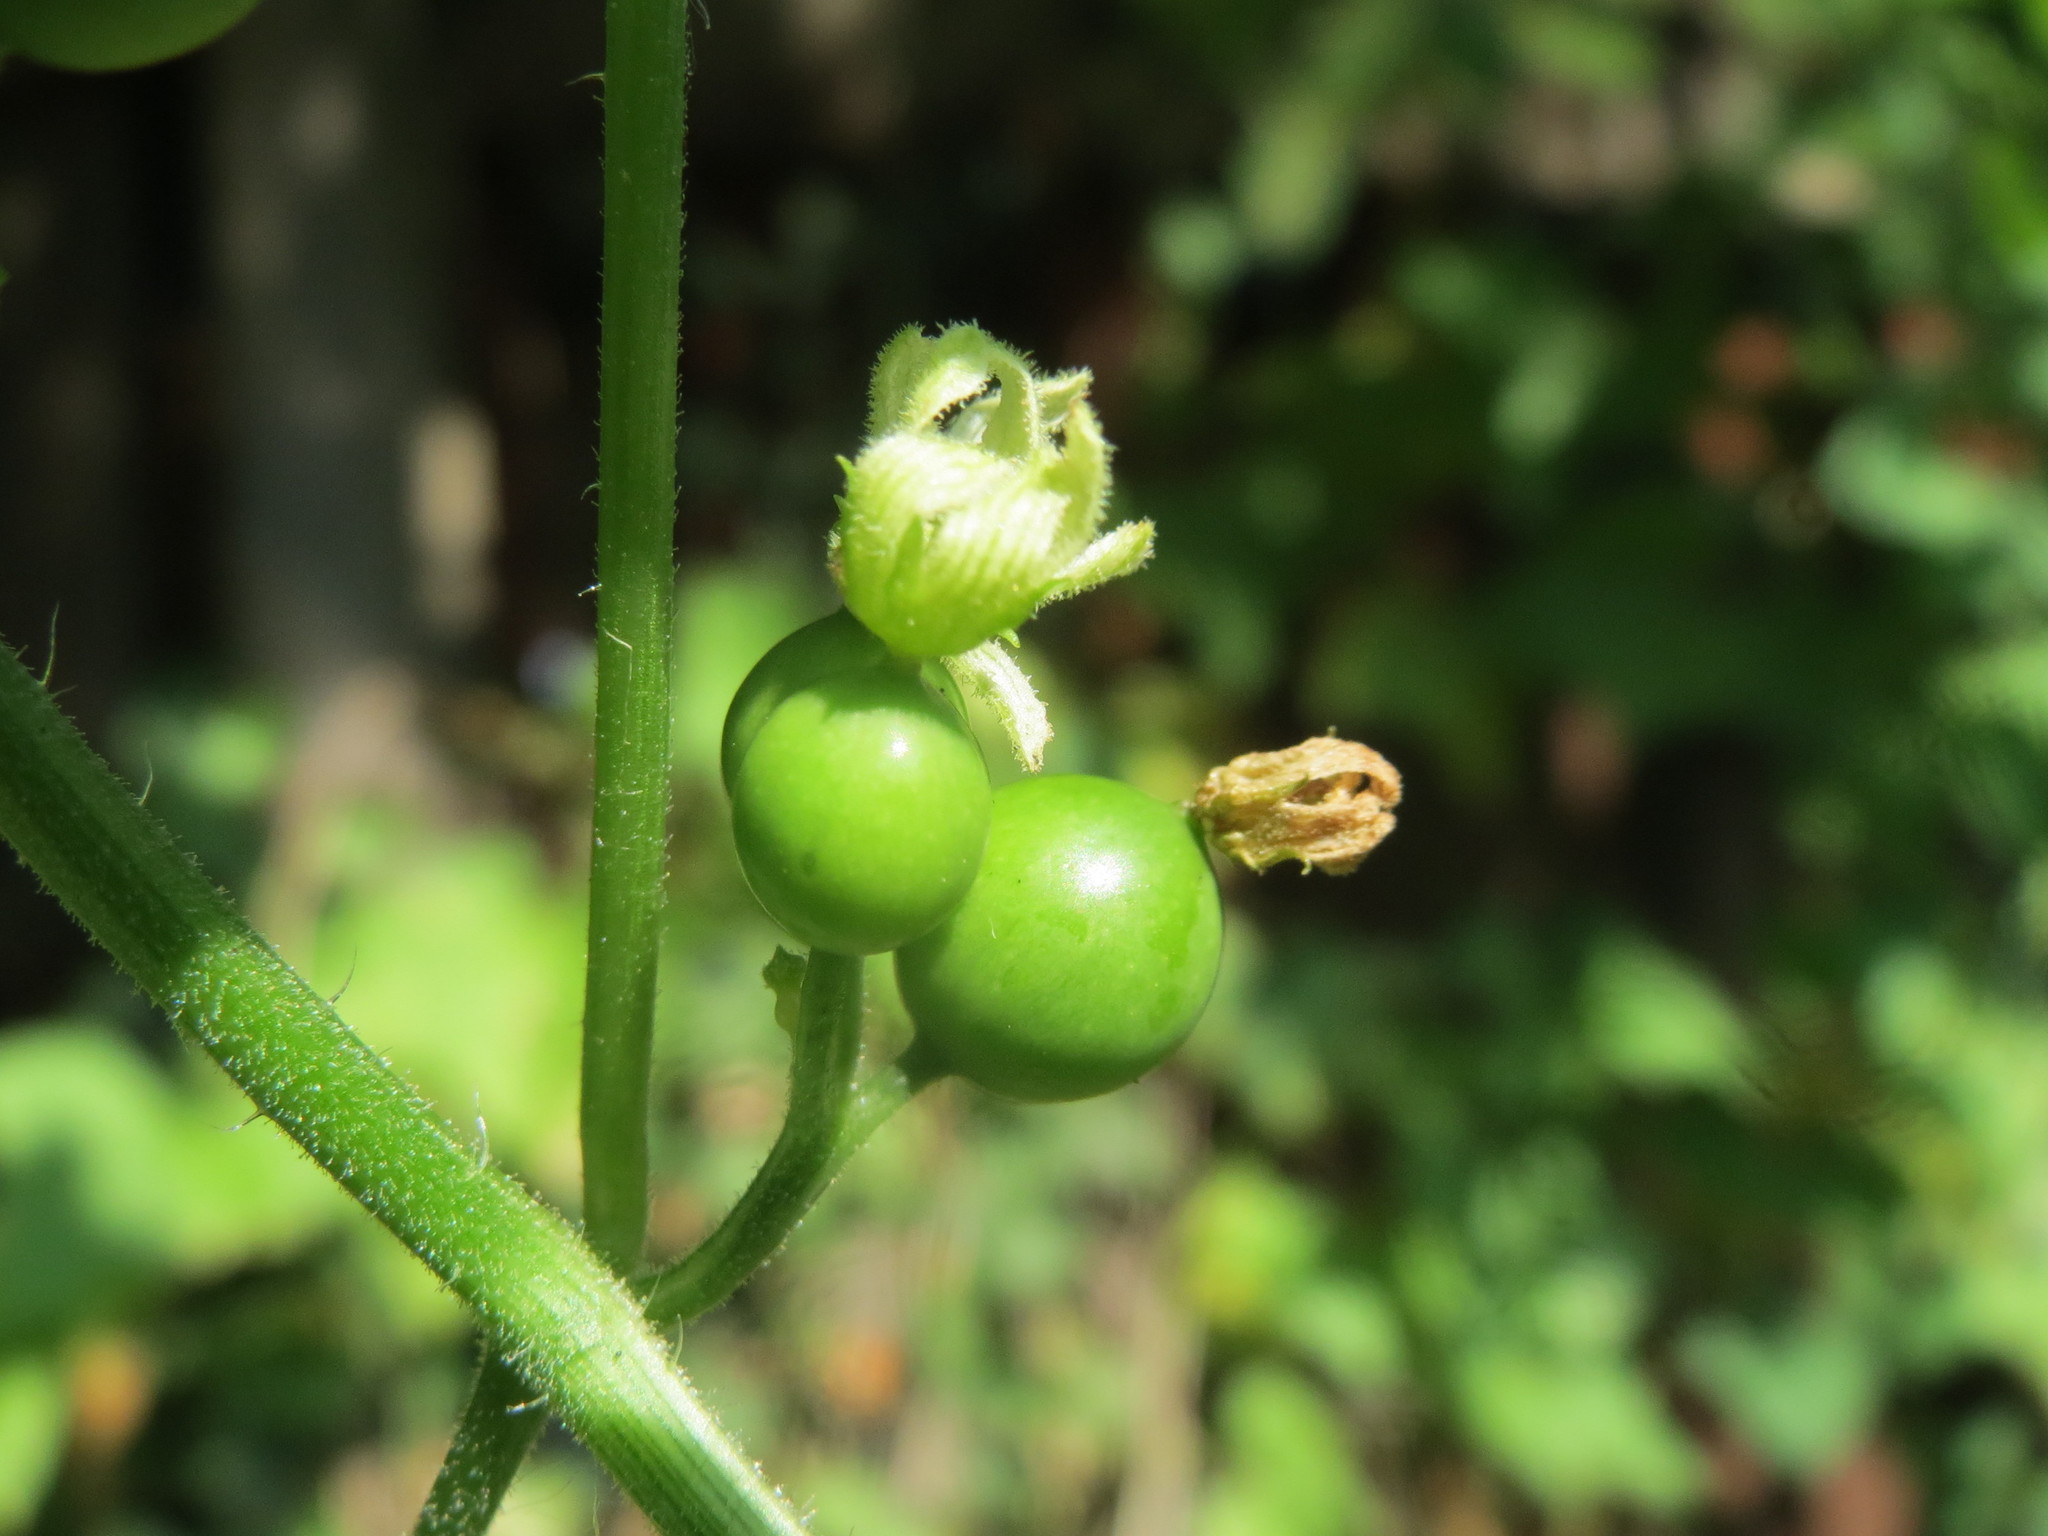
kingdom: Plantae
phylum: Tracheophyta
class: Magnoliopsida
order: Cucurbitales
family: Cucurbitaceae
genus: Bryonia
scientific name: Bryonia dioica
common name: White bryony
